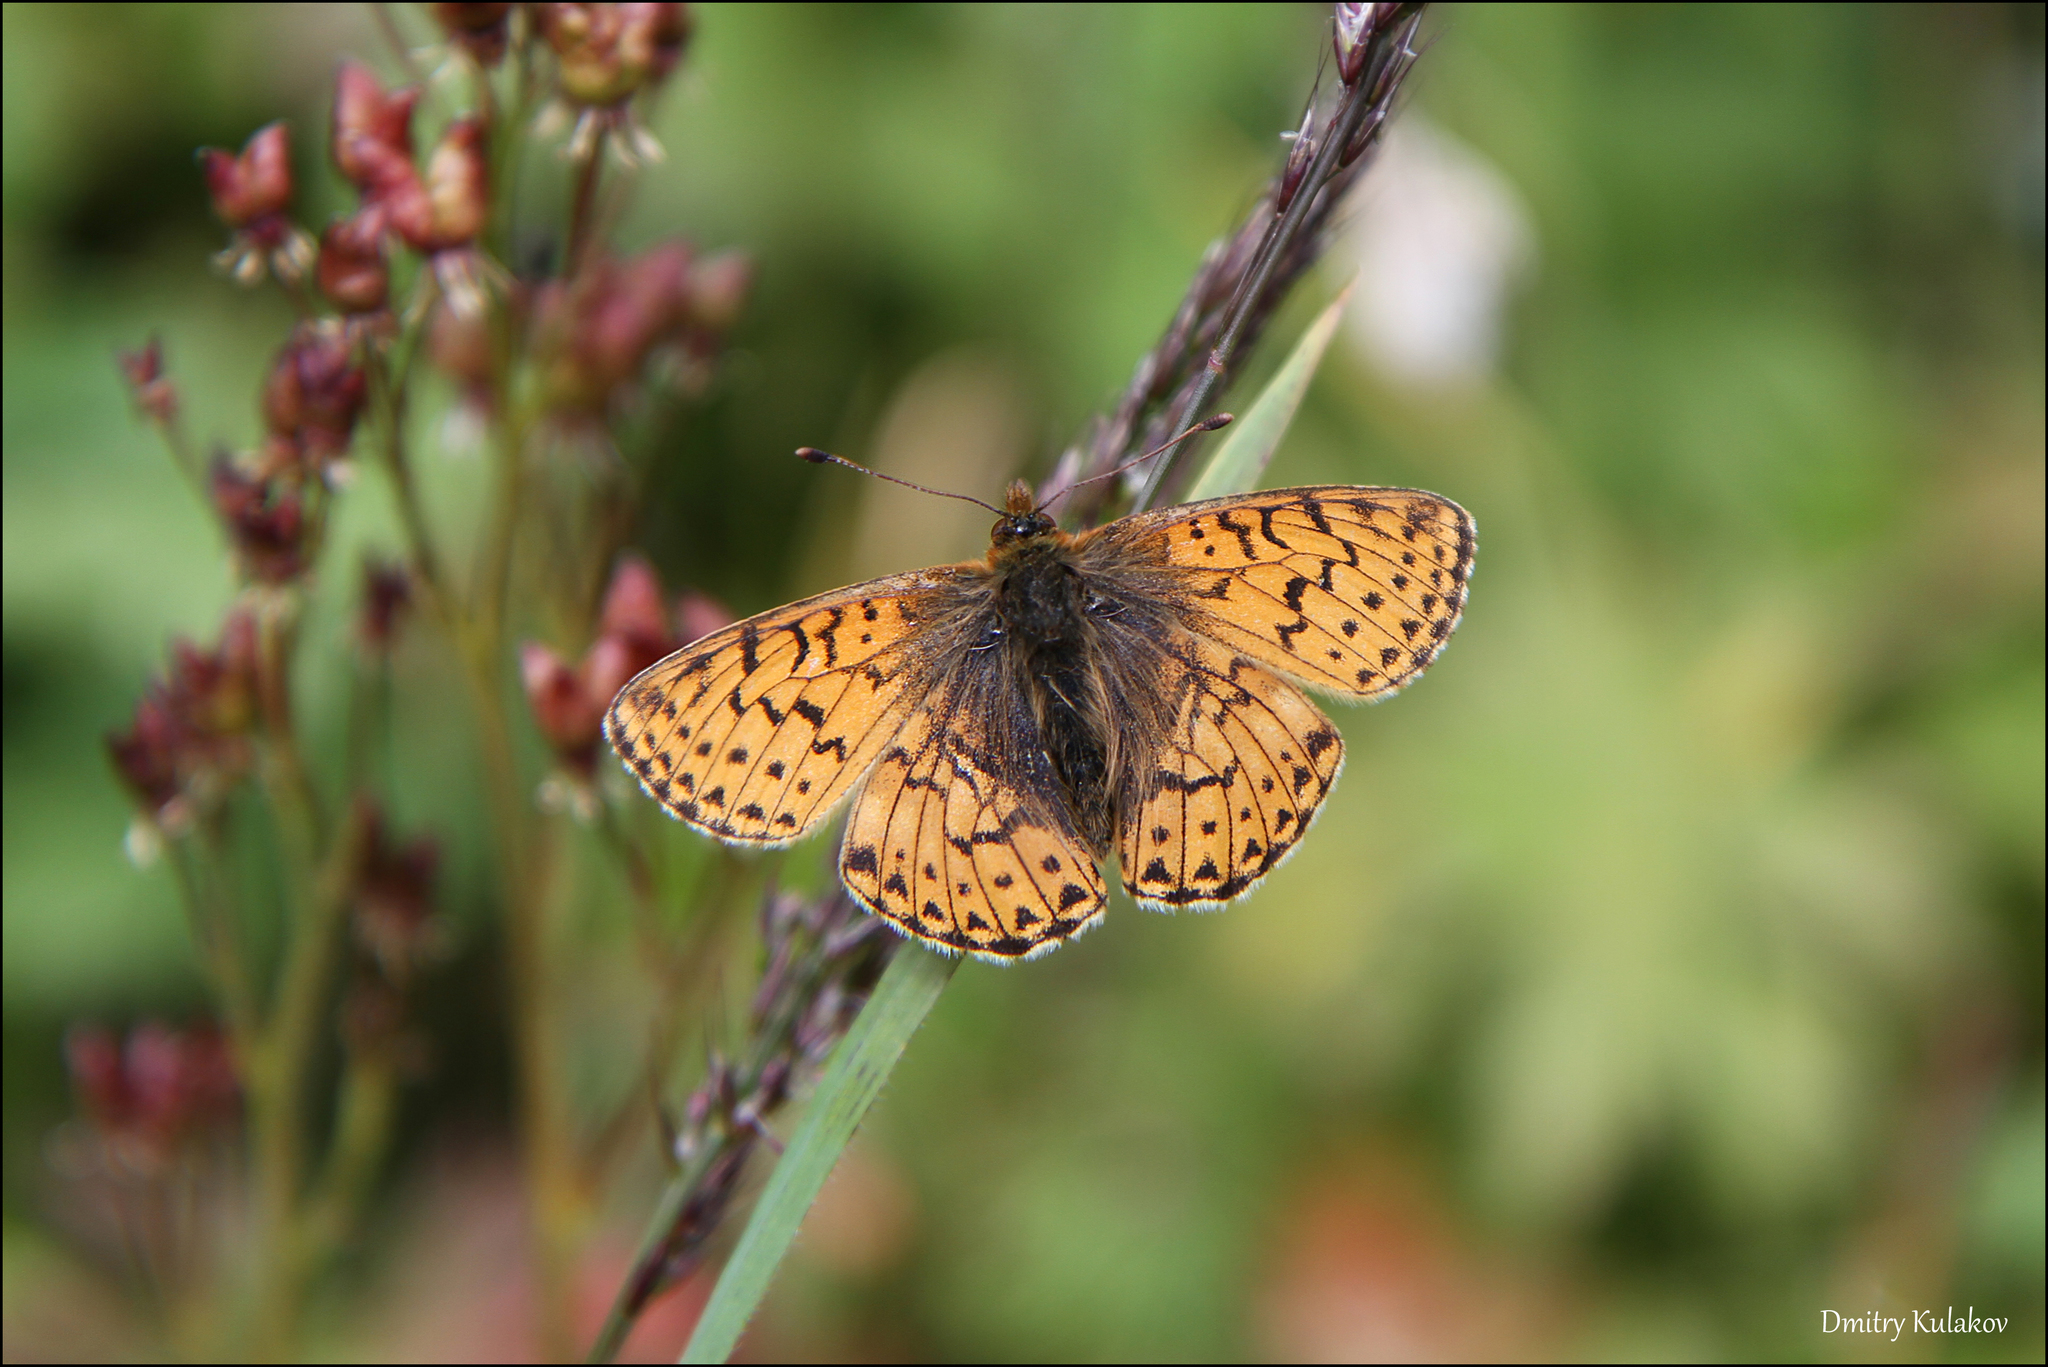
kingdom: Animalia
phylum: Arthropoda
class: Insecta
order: Lepidoptera
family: Nymphalidae
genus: Boloria
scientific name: Boloria
